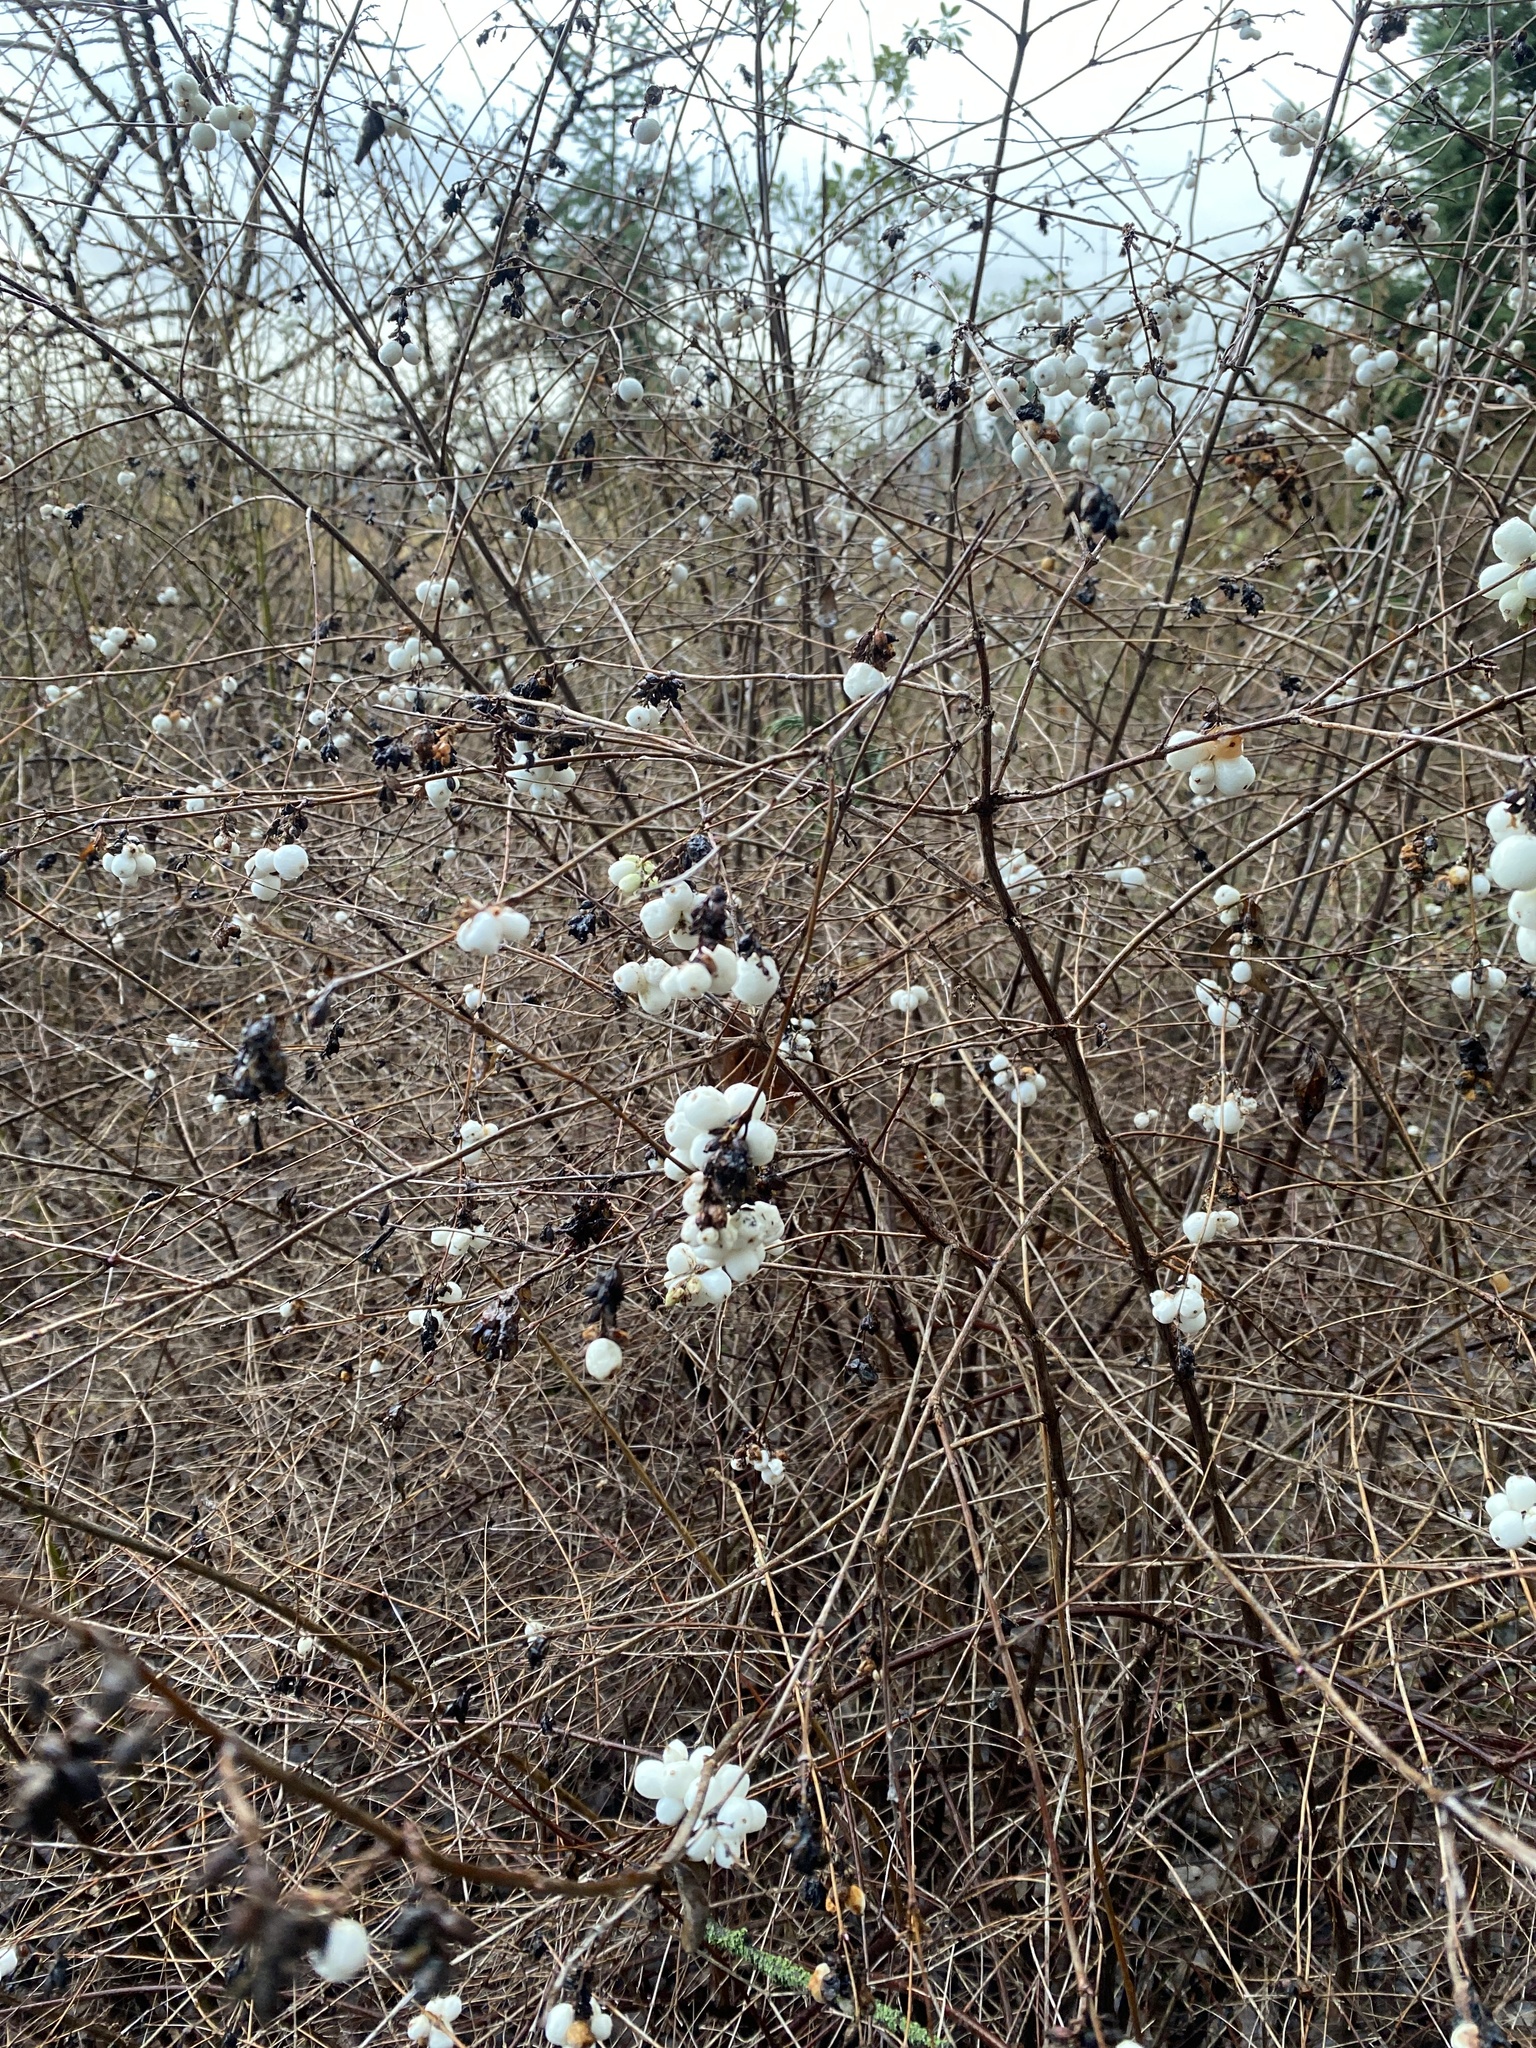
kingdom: Plantae
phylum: Tracheophyta
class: Magnoliopsida
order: Dipsacales
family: Caprifoliaceae
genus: Symphoricarpos
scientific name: Symphoricarpos albus
